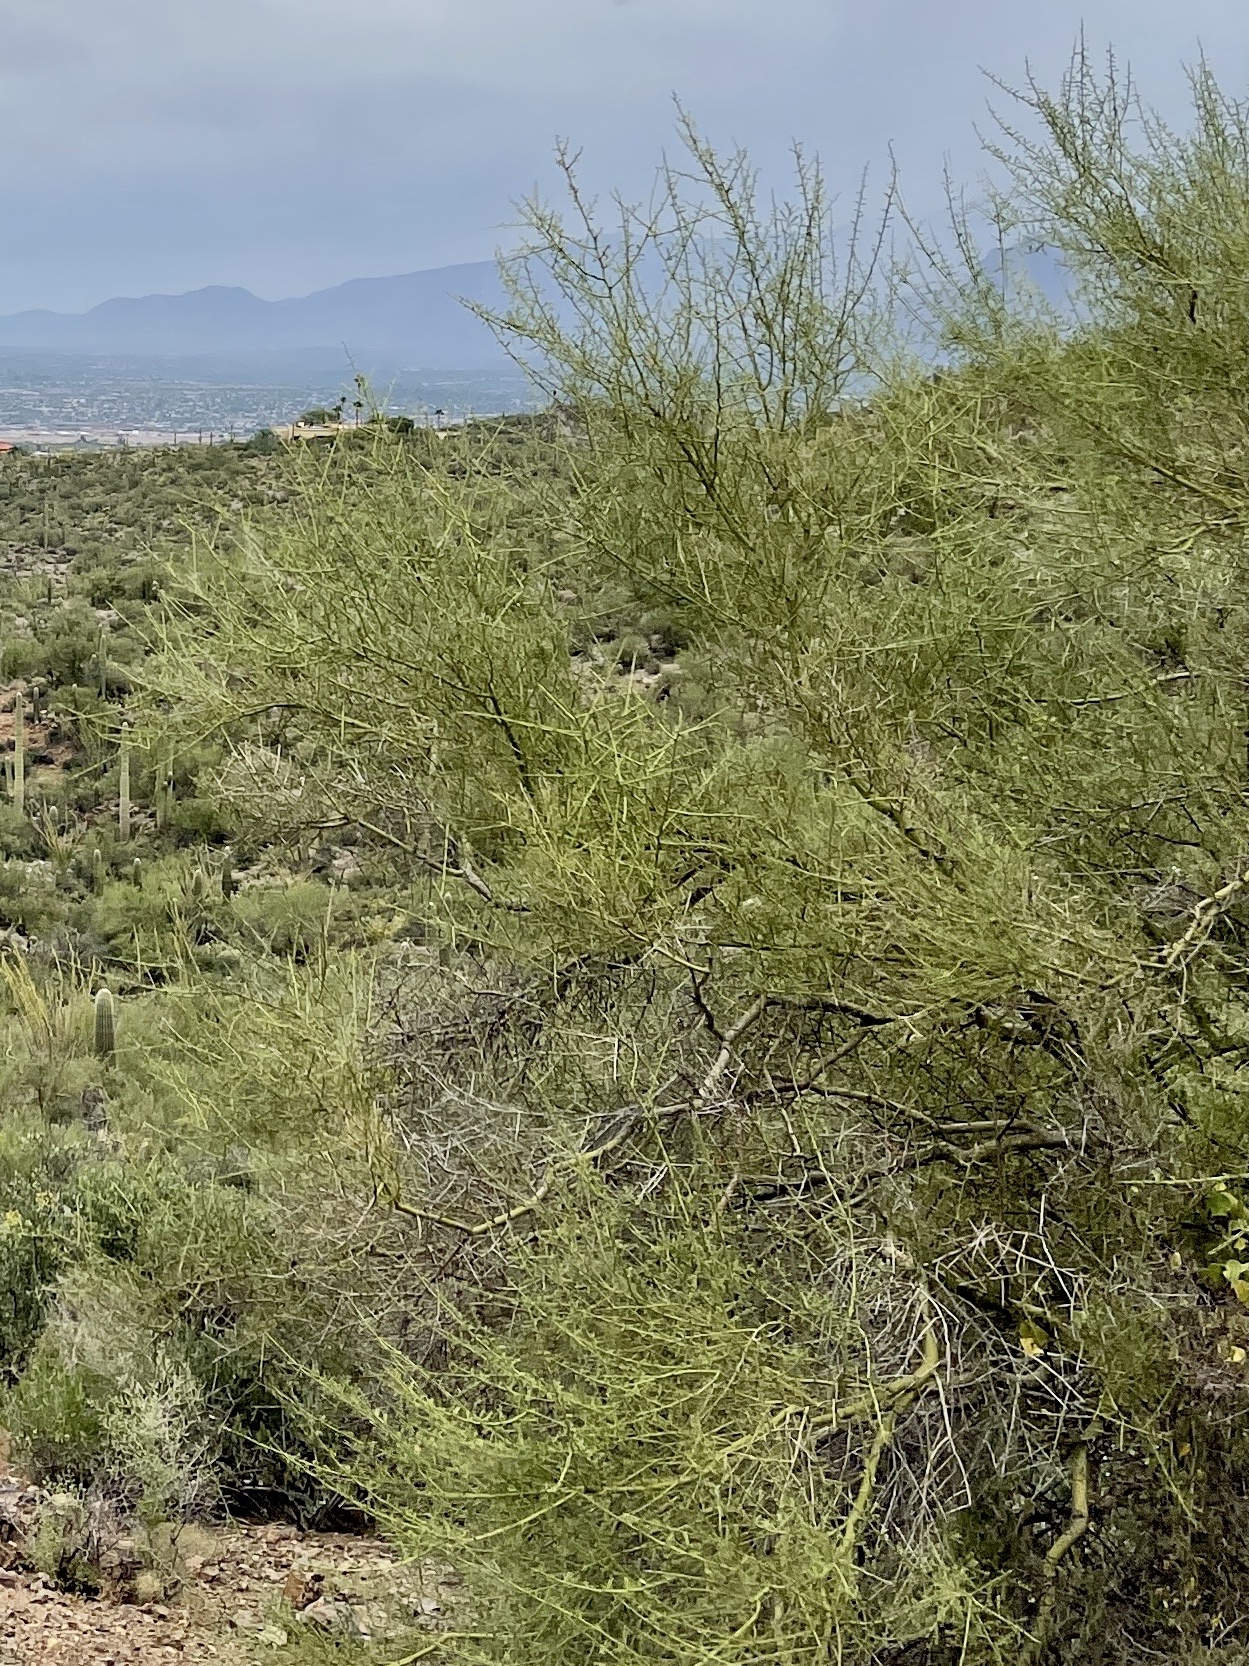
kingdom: Plantae
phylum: Tracheophyta
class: Magnoliopsida
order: Fabales
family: Fabaceae
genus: Parkinsonia
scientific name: Parkinsonia microphylla
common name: Yellow paloverde
